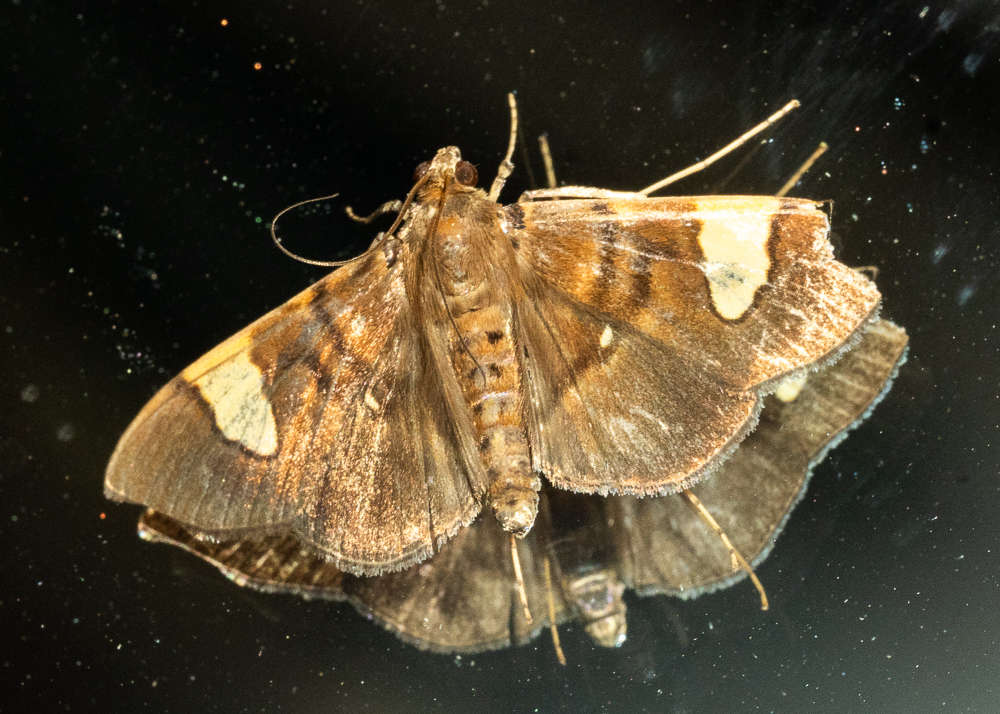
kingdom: Animalia
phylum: Arthropoda
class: Insecta
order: Lepidoptera
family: Crambidae
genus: Syllepte
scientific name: Syllepte semivialis
